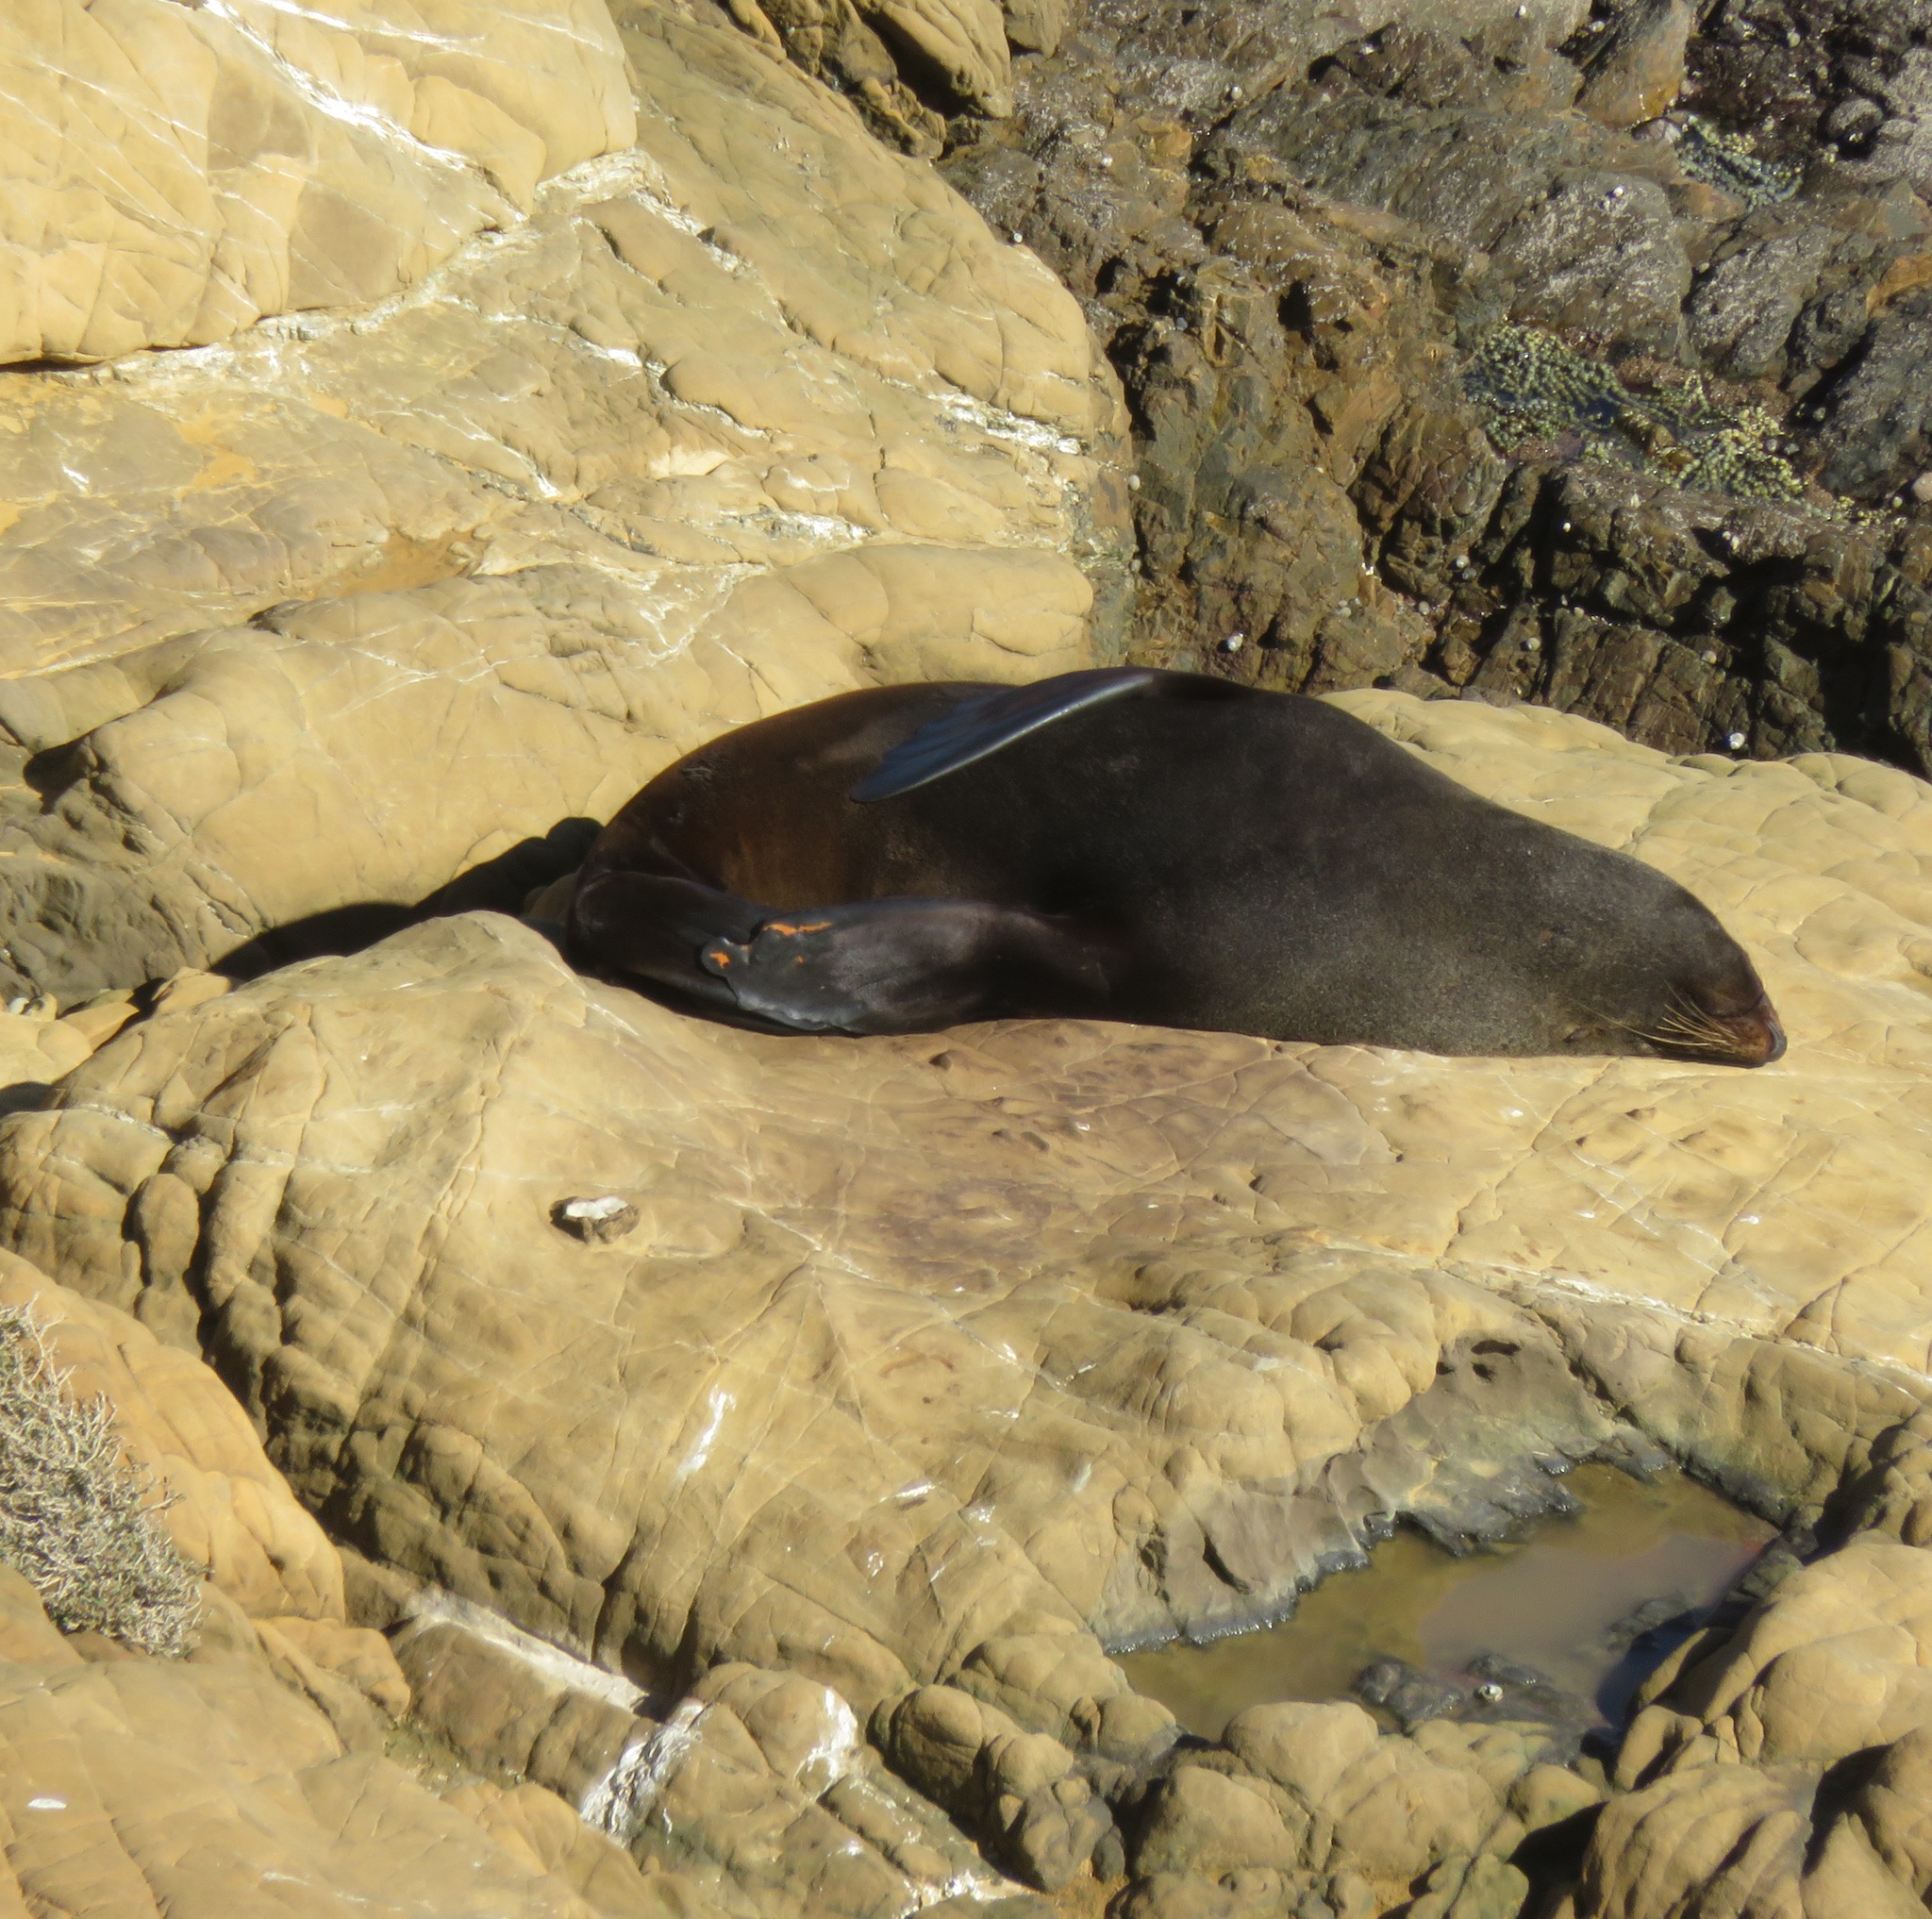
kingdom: Animalia
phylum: Chordata
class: Mammalia
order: Carnivora
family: Otariidae
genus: Arctocephalus
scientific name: Arctocephalus forsteri
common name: New zealand fur seal
